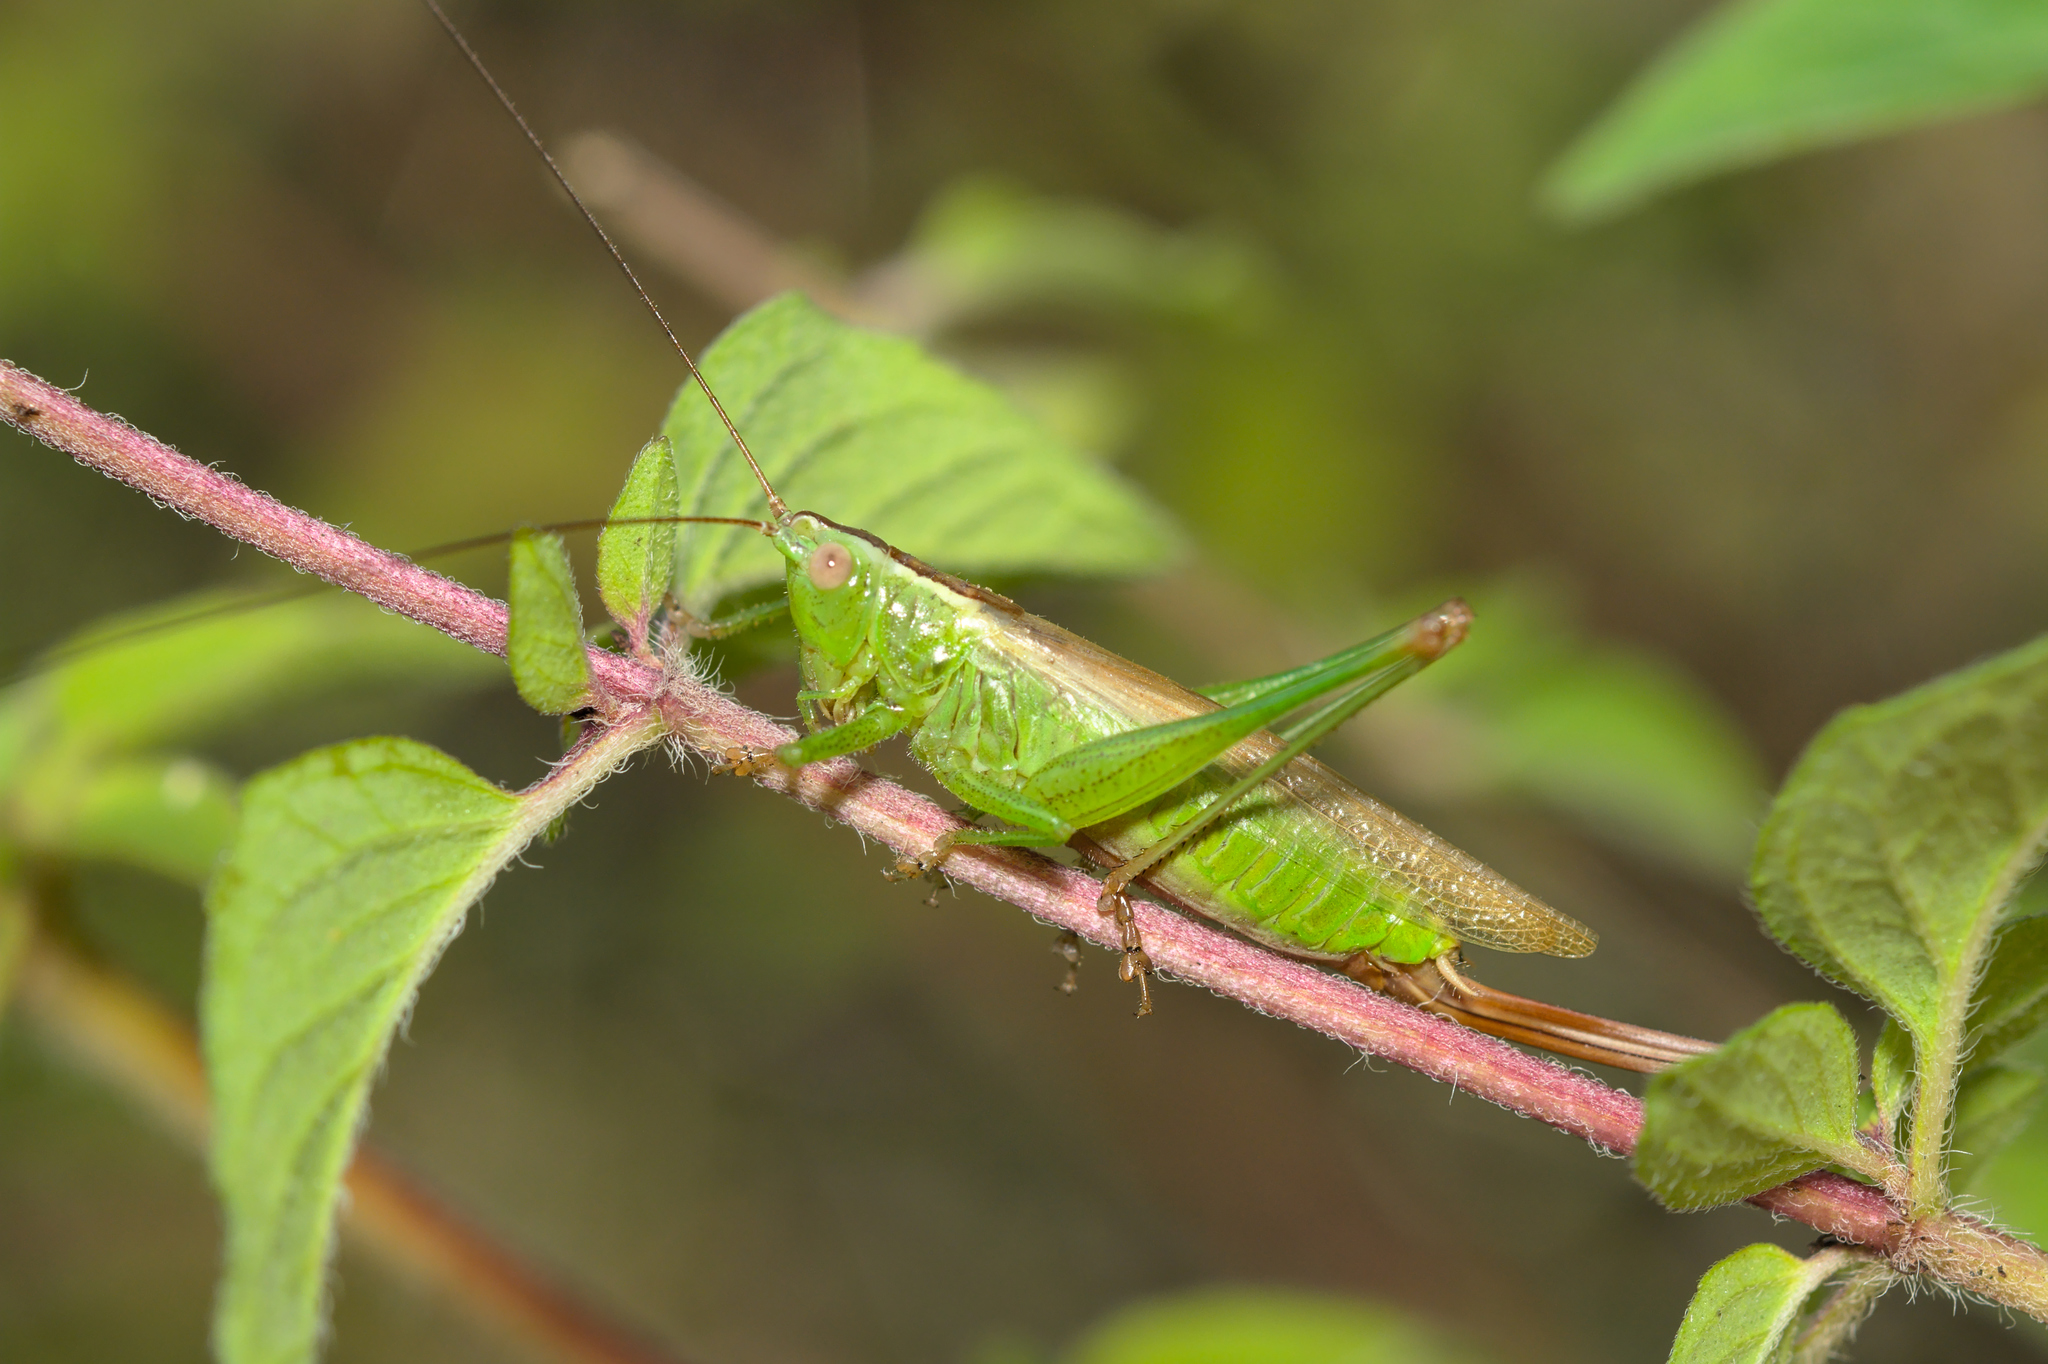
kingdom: Animalia
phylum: Arthropoda
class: Insecta
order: Orthoptera
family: Tettigoniidae
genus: Conocephalus
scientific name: Conocephalus fuscus
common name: Long-winged conehead
